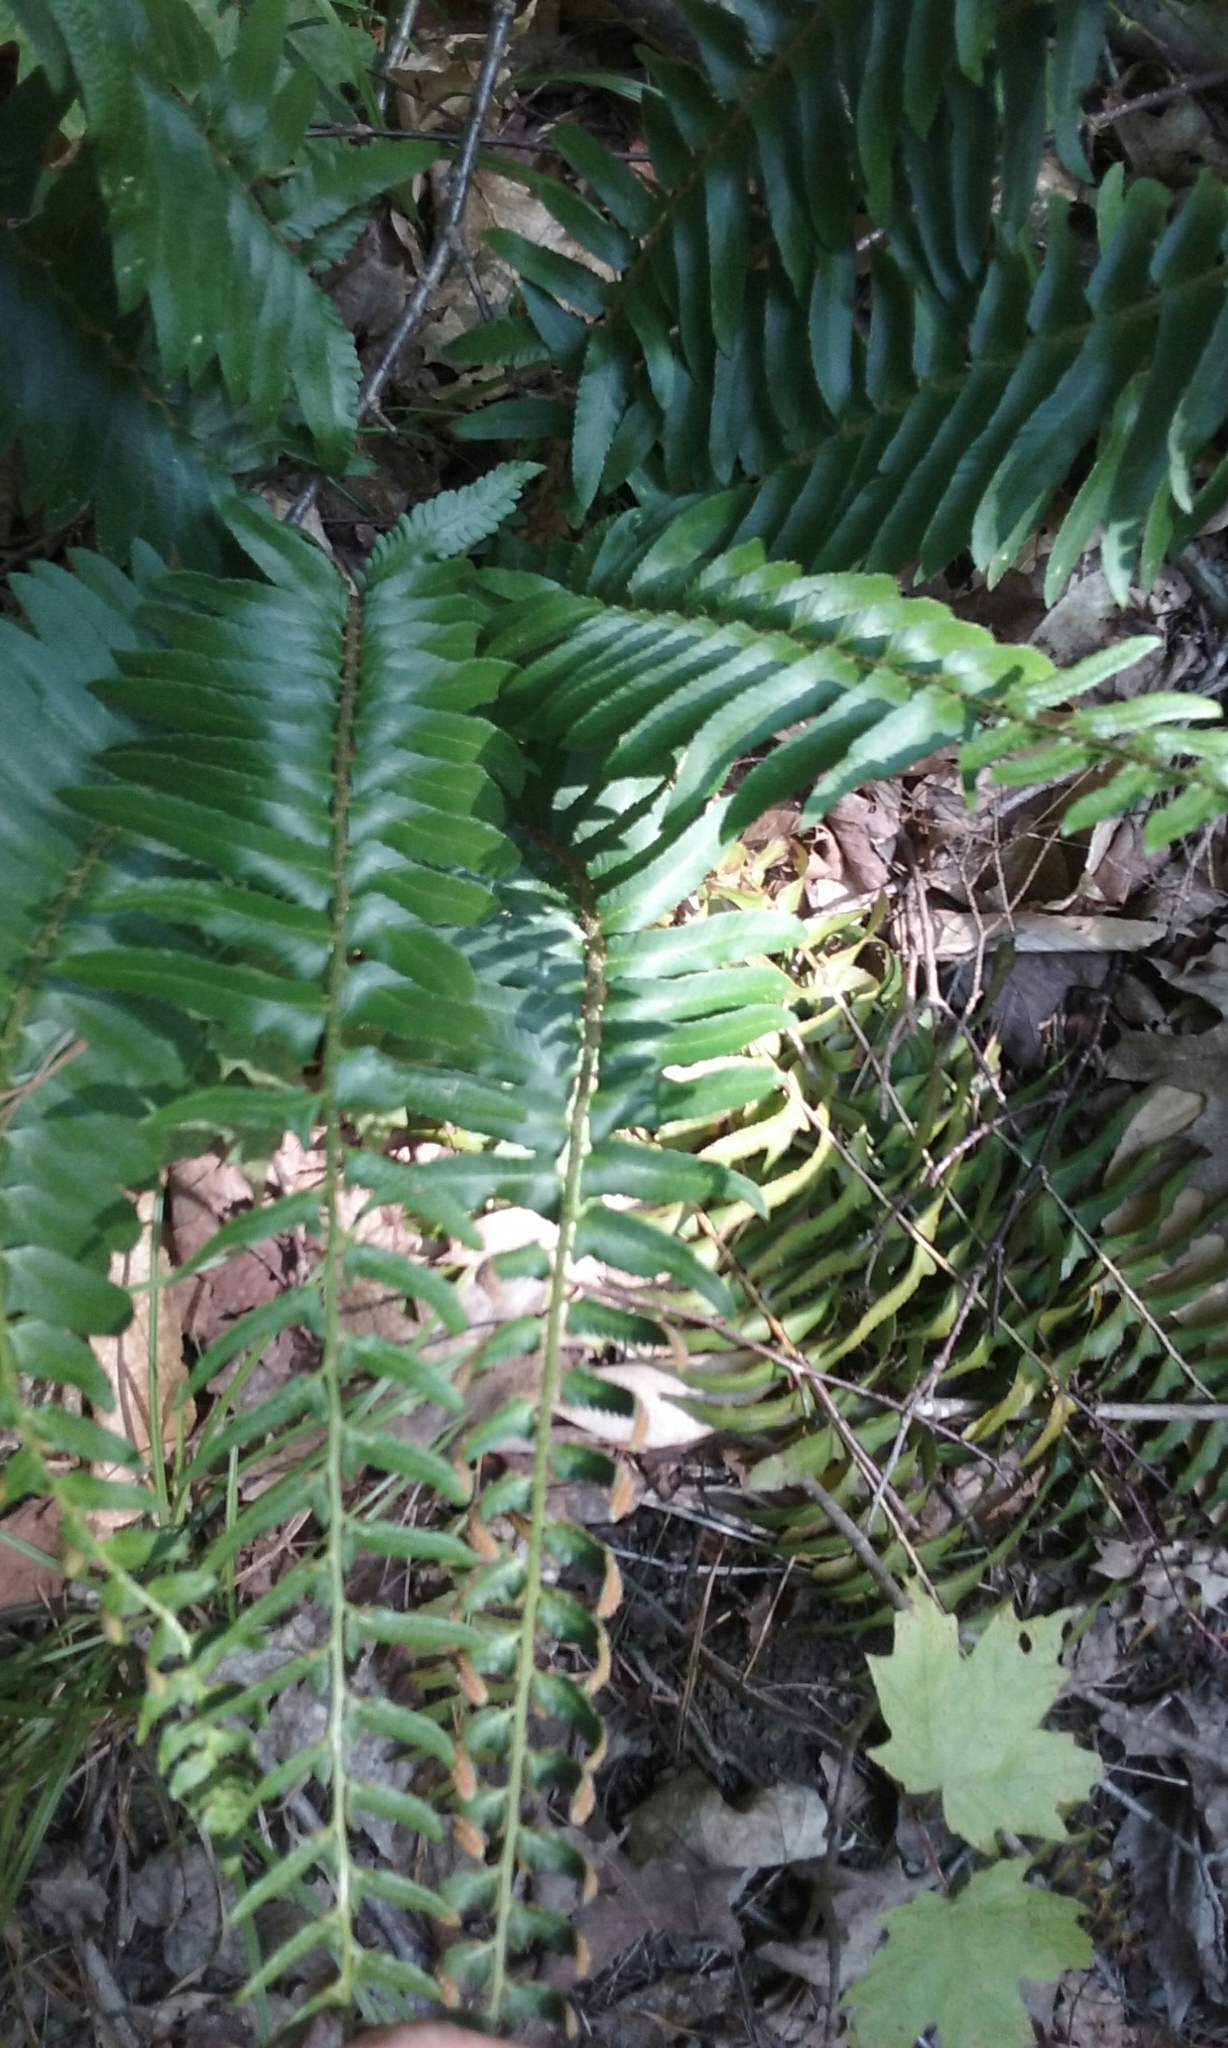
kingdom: Plantae
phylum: Tracheophyta
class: Polypodiopsida
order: Polypodiales
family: Dryopteridaceae
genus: Polystichum
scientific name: Polystichum acrostichoides
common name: Christmas fern
